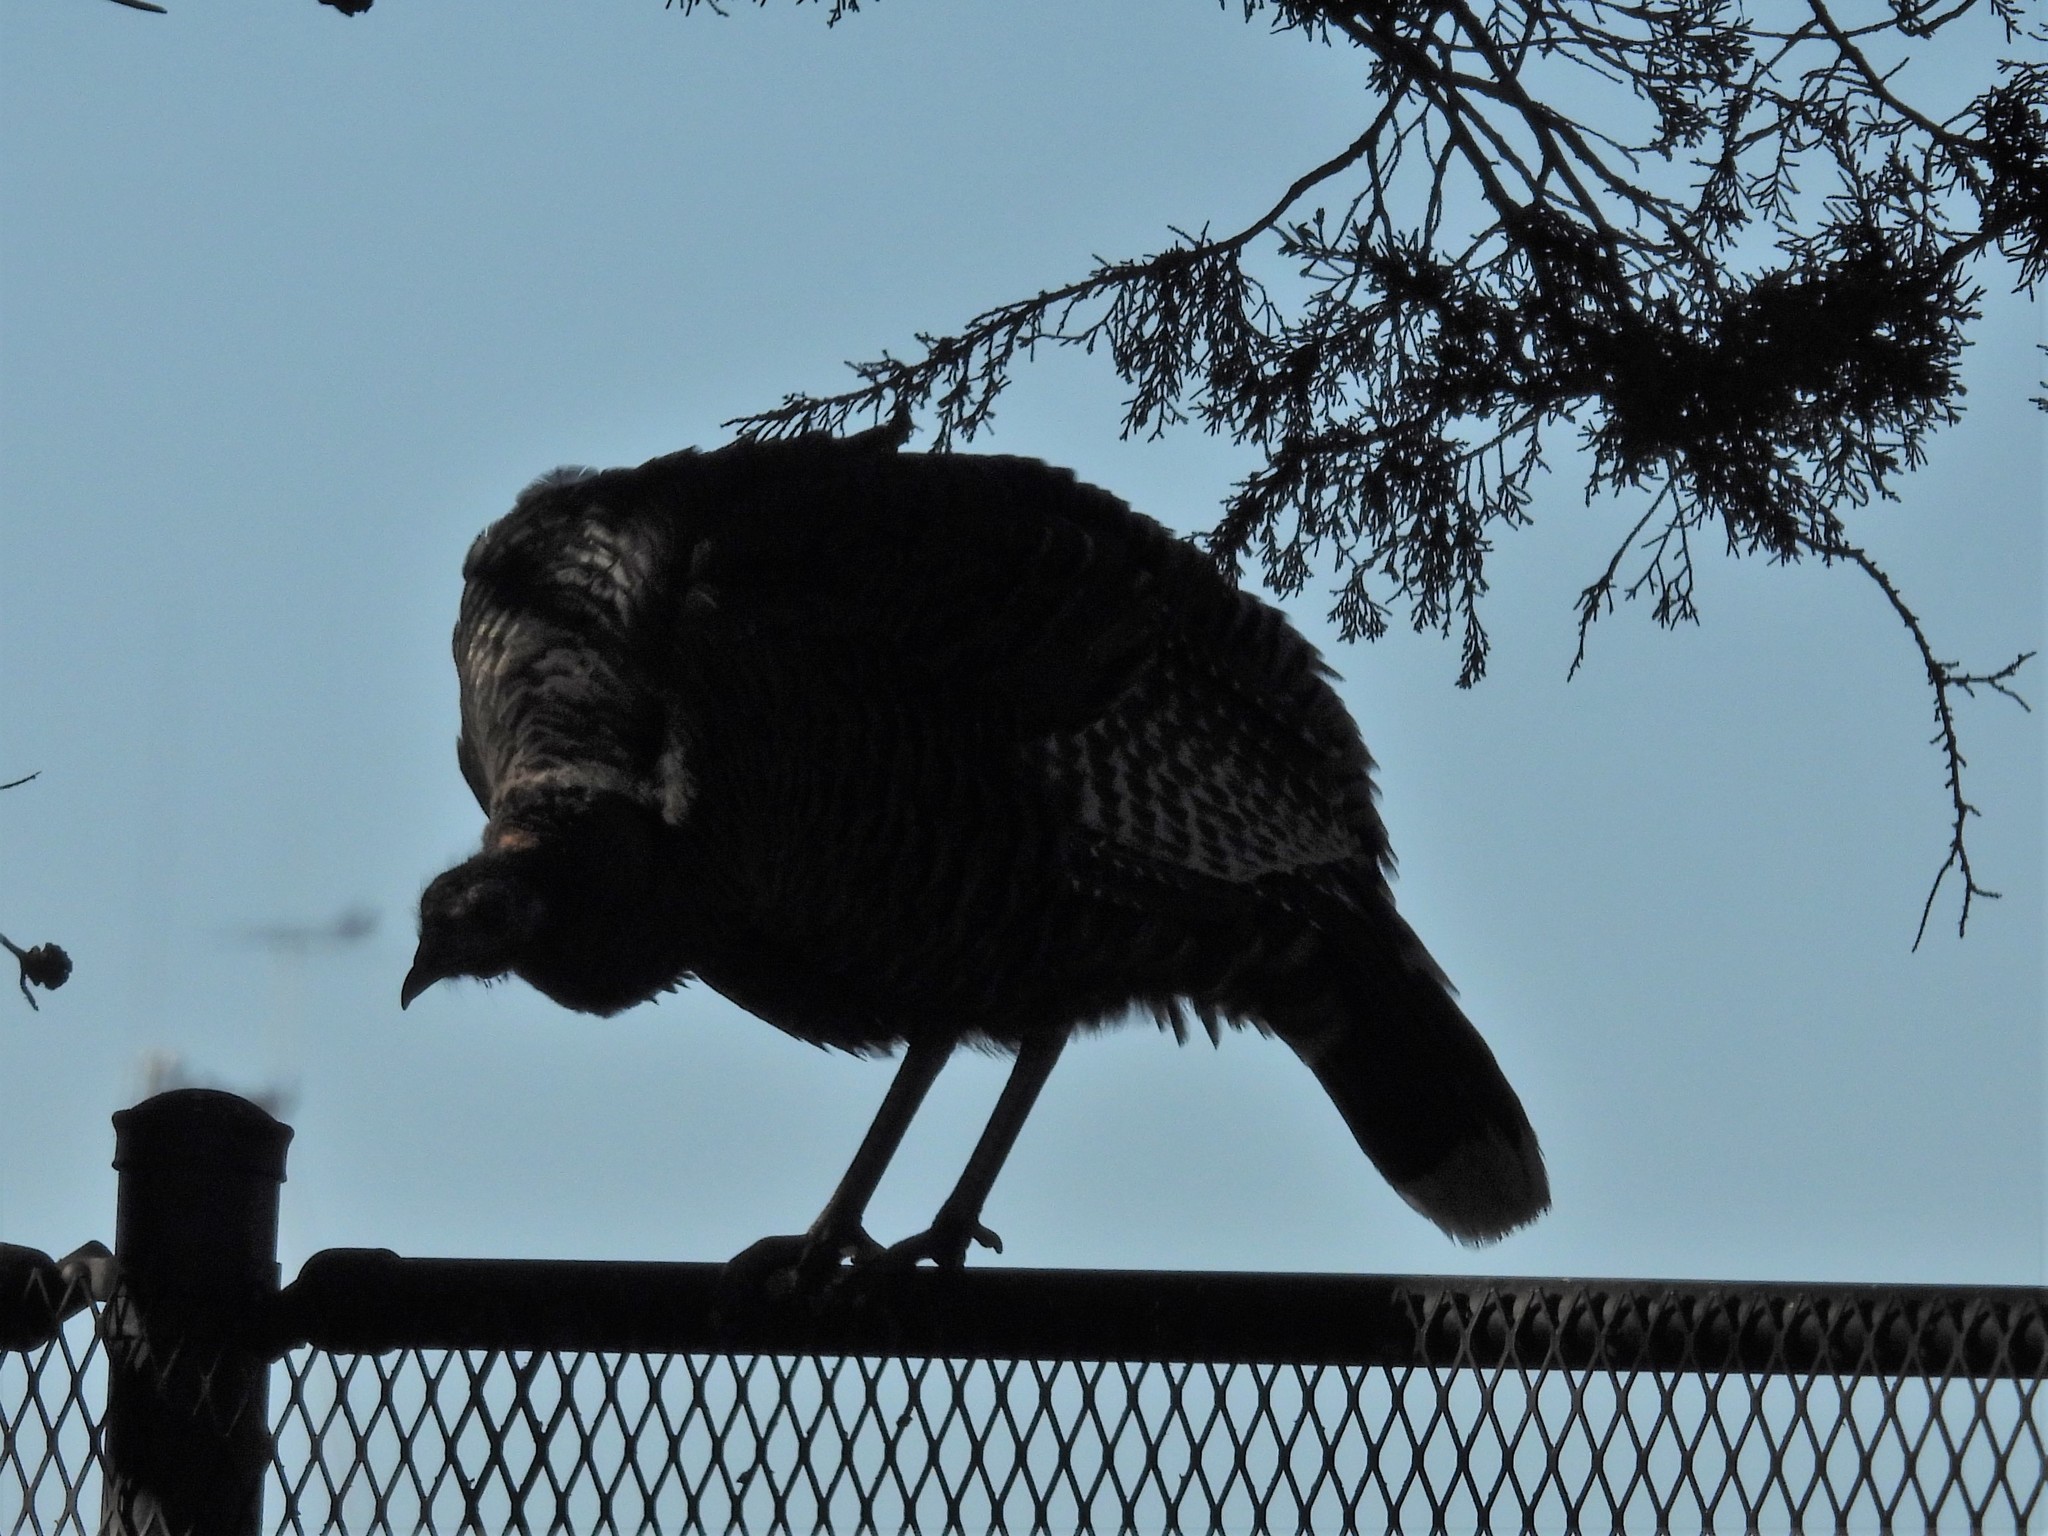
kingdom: Animalia
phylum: Chordata
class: Aves
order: Galliformes
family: Phasianidae
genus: Meleagris
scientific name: Meleagris gallopavo
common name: Wild turkey
